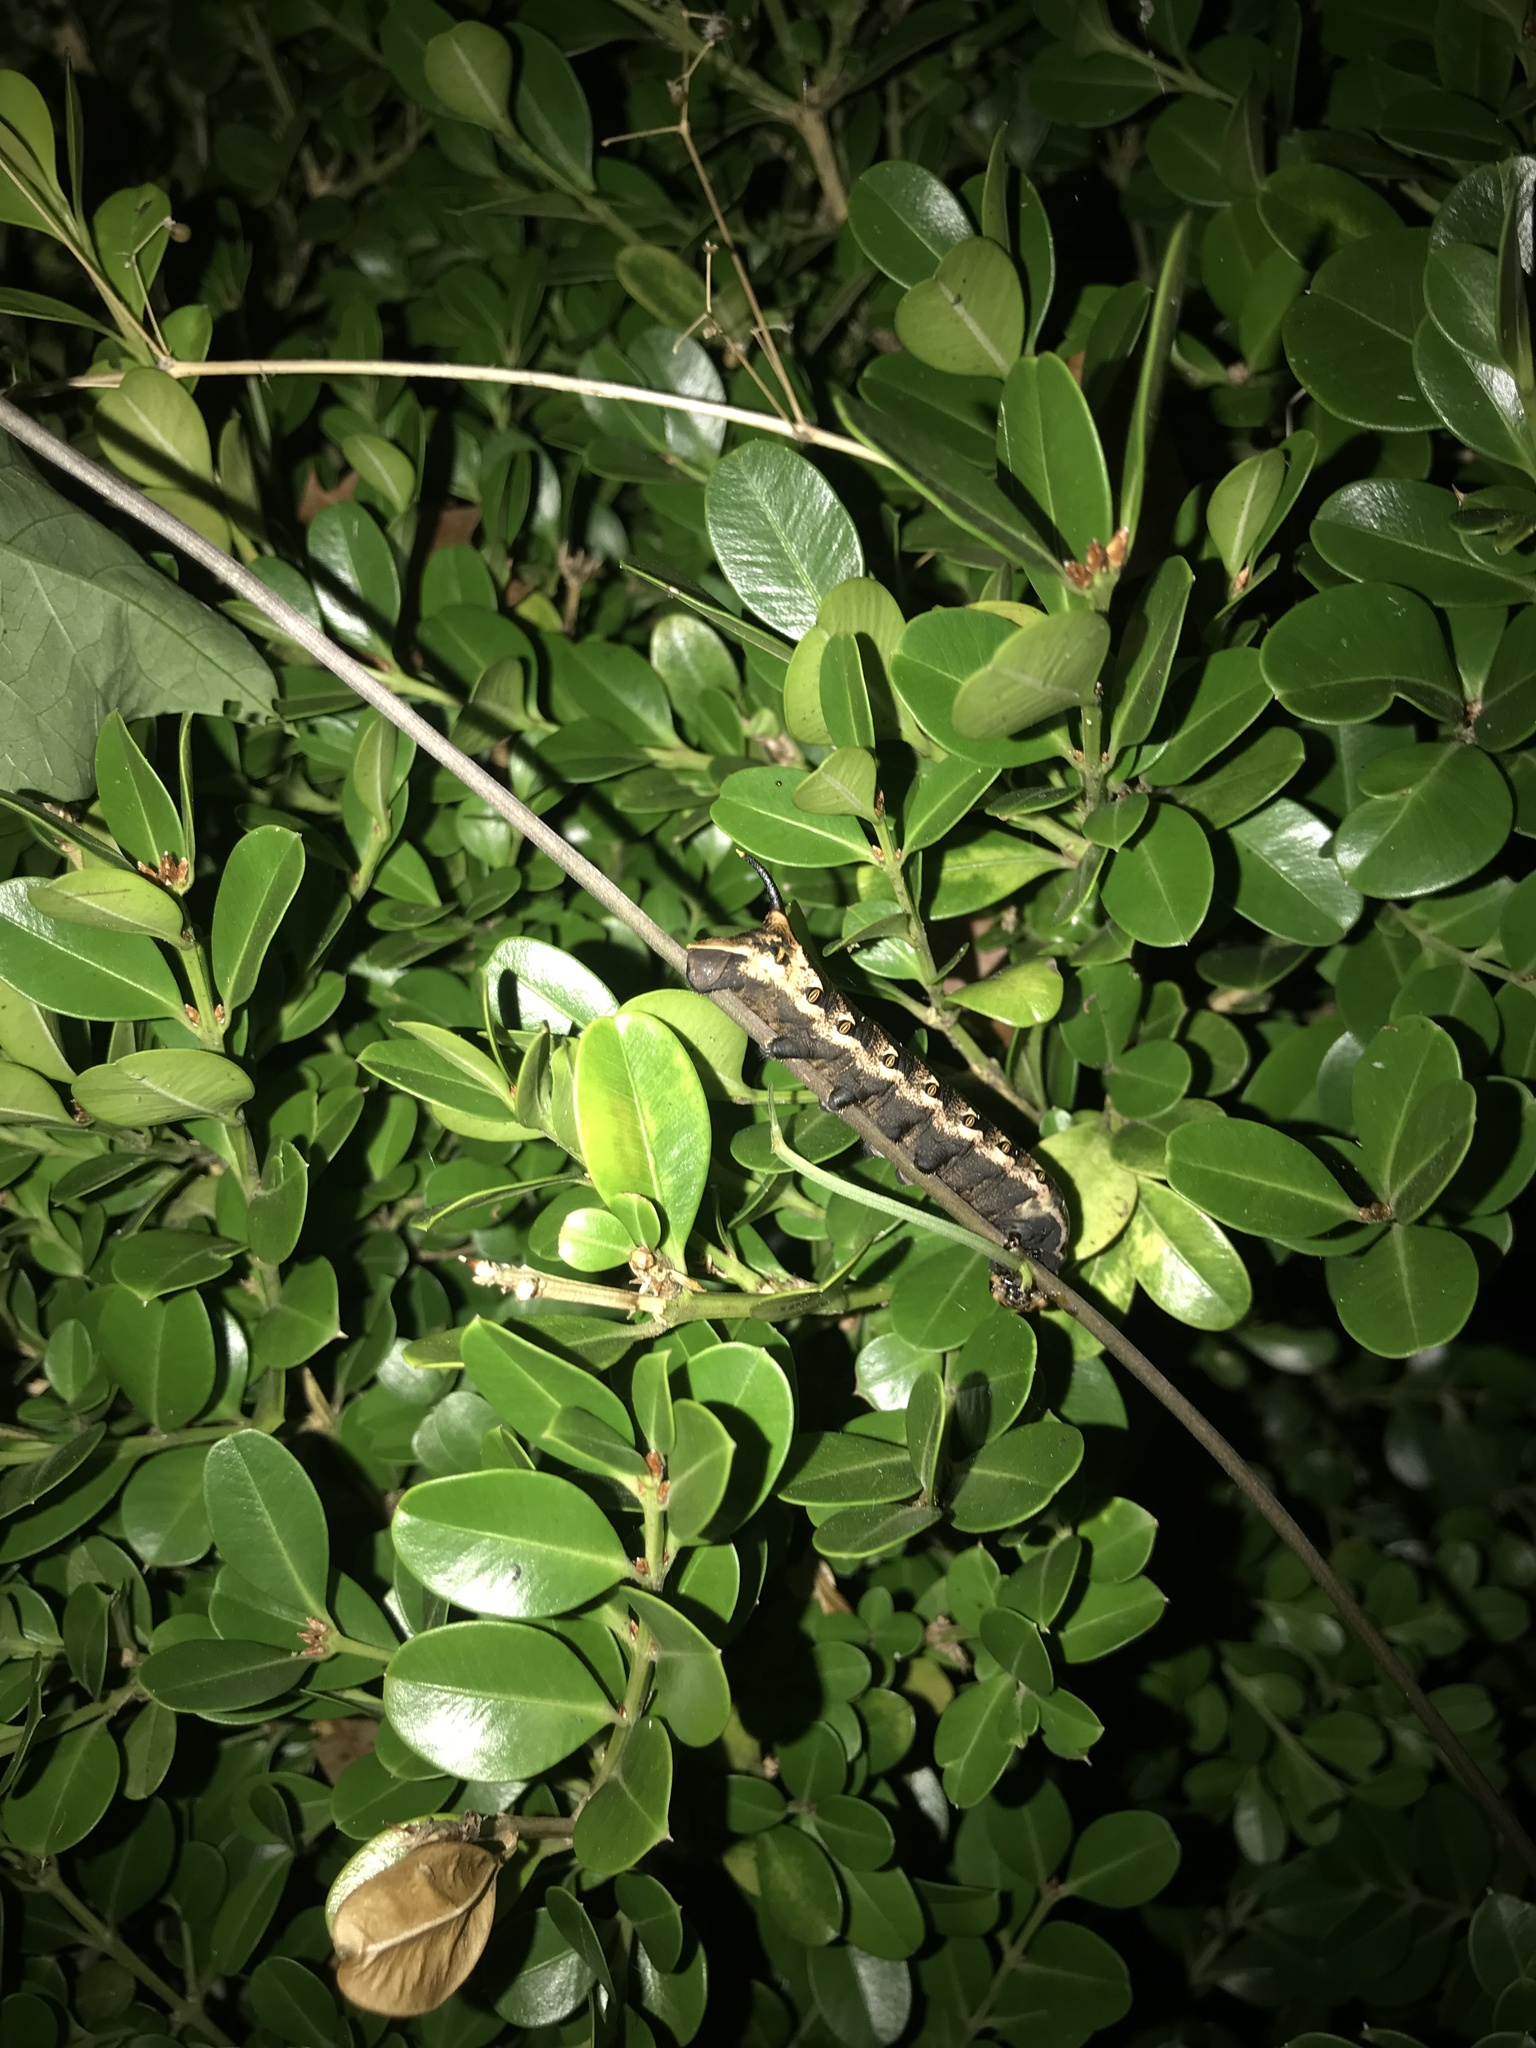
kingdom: Animalia
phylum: Arthropoda
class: Insecta
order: Lepidoptera
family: Sphingidae
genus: Agrius
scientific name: Agrius cingulata
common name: Pink-spotted hawkmoth
